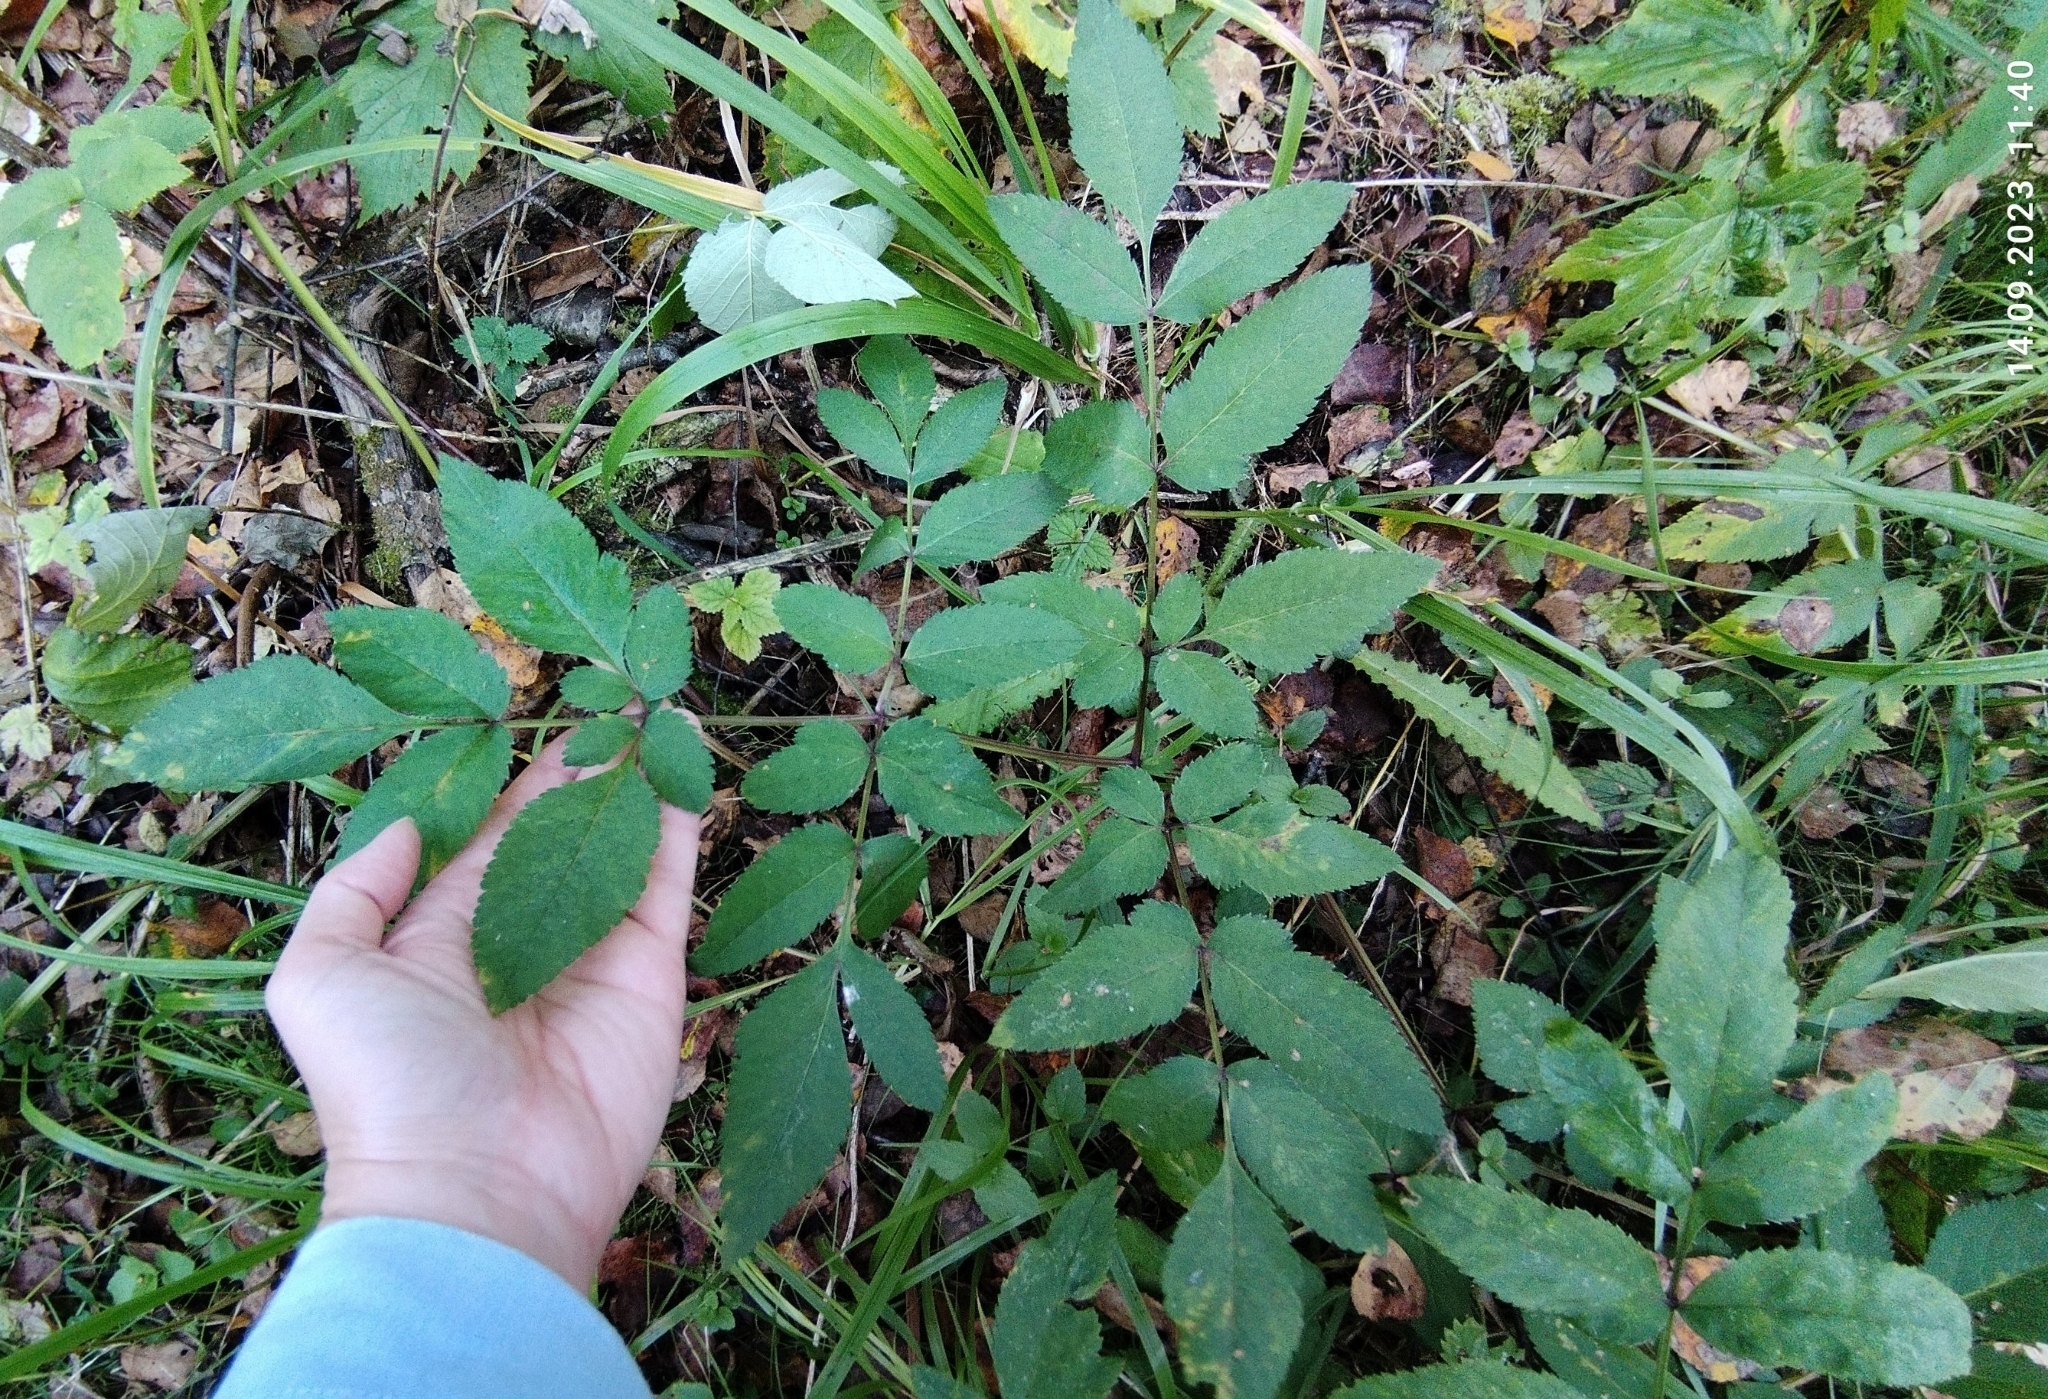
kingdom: Plantae
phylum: Tracheophyta
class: Magnoliopsida
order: Apiales
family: Apiaceae
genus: Angelica
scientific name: Angelica sylvestris
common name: Wild angelica
